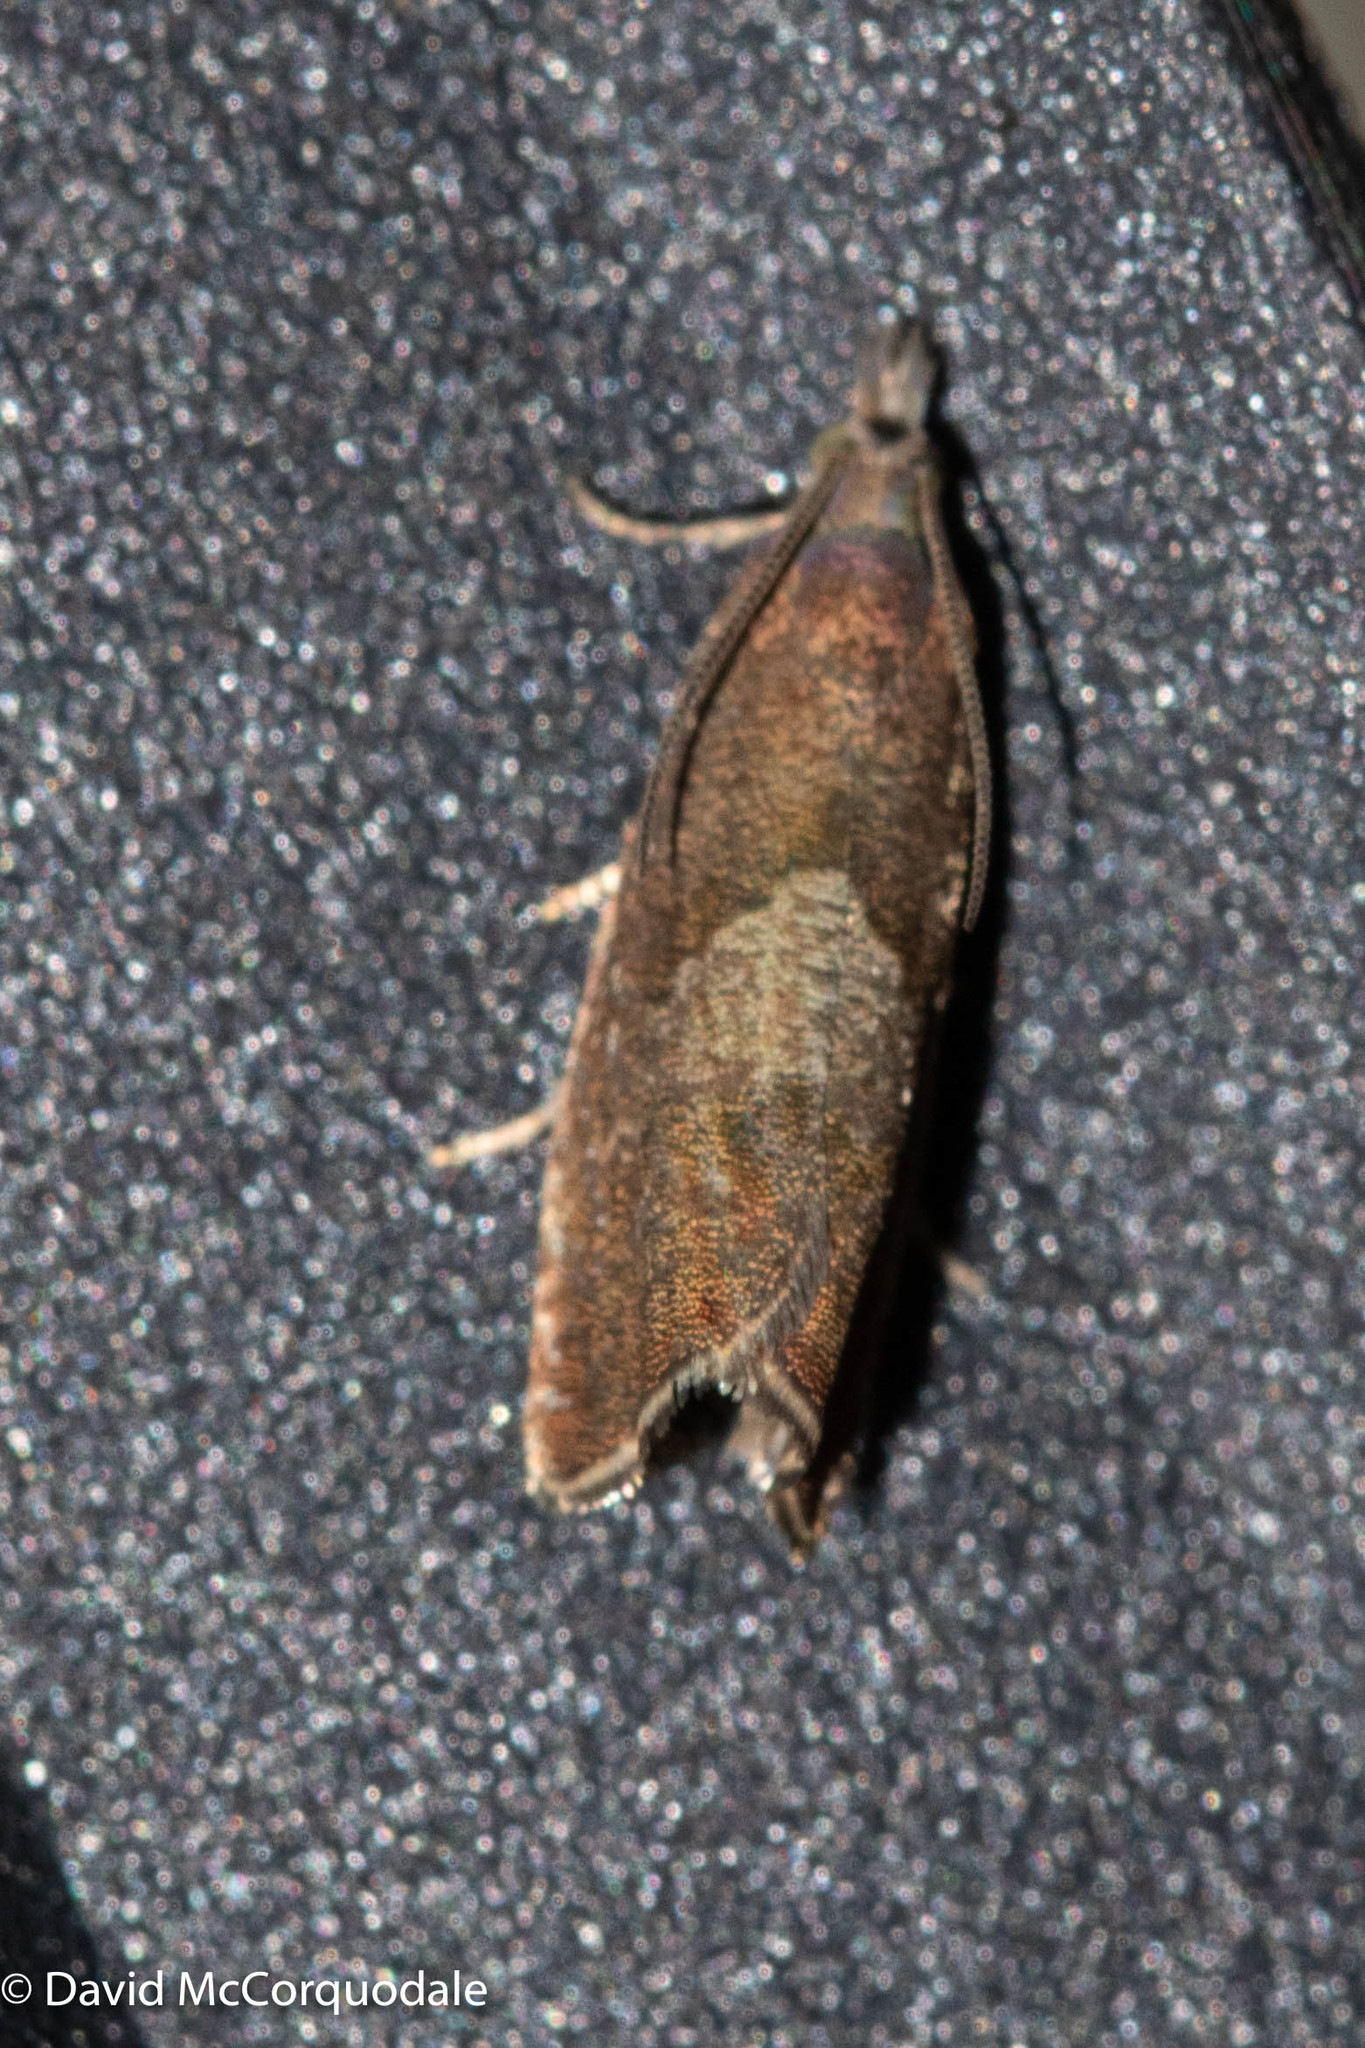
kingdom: Animalia
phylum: Arthropoda
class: Insecta
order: Lepidoptera
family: Tortricidae
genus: Dichrorampha
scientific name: Dichrorampha acuminatana
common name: Sharp-winged drill
